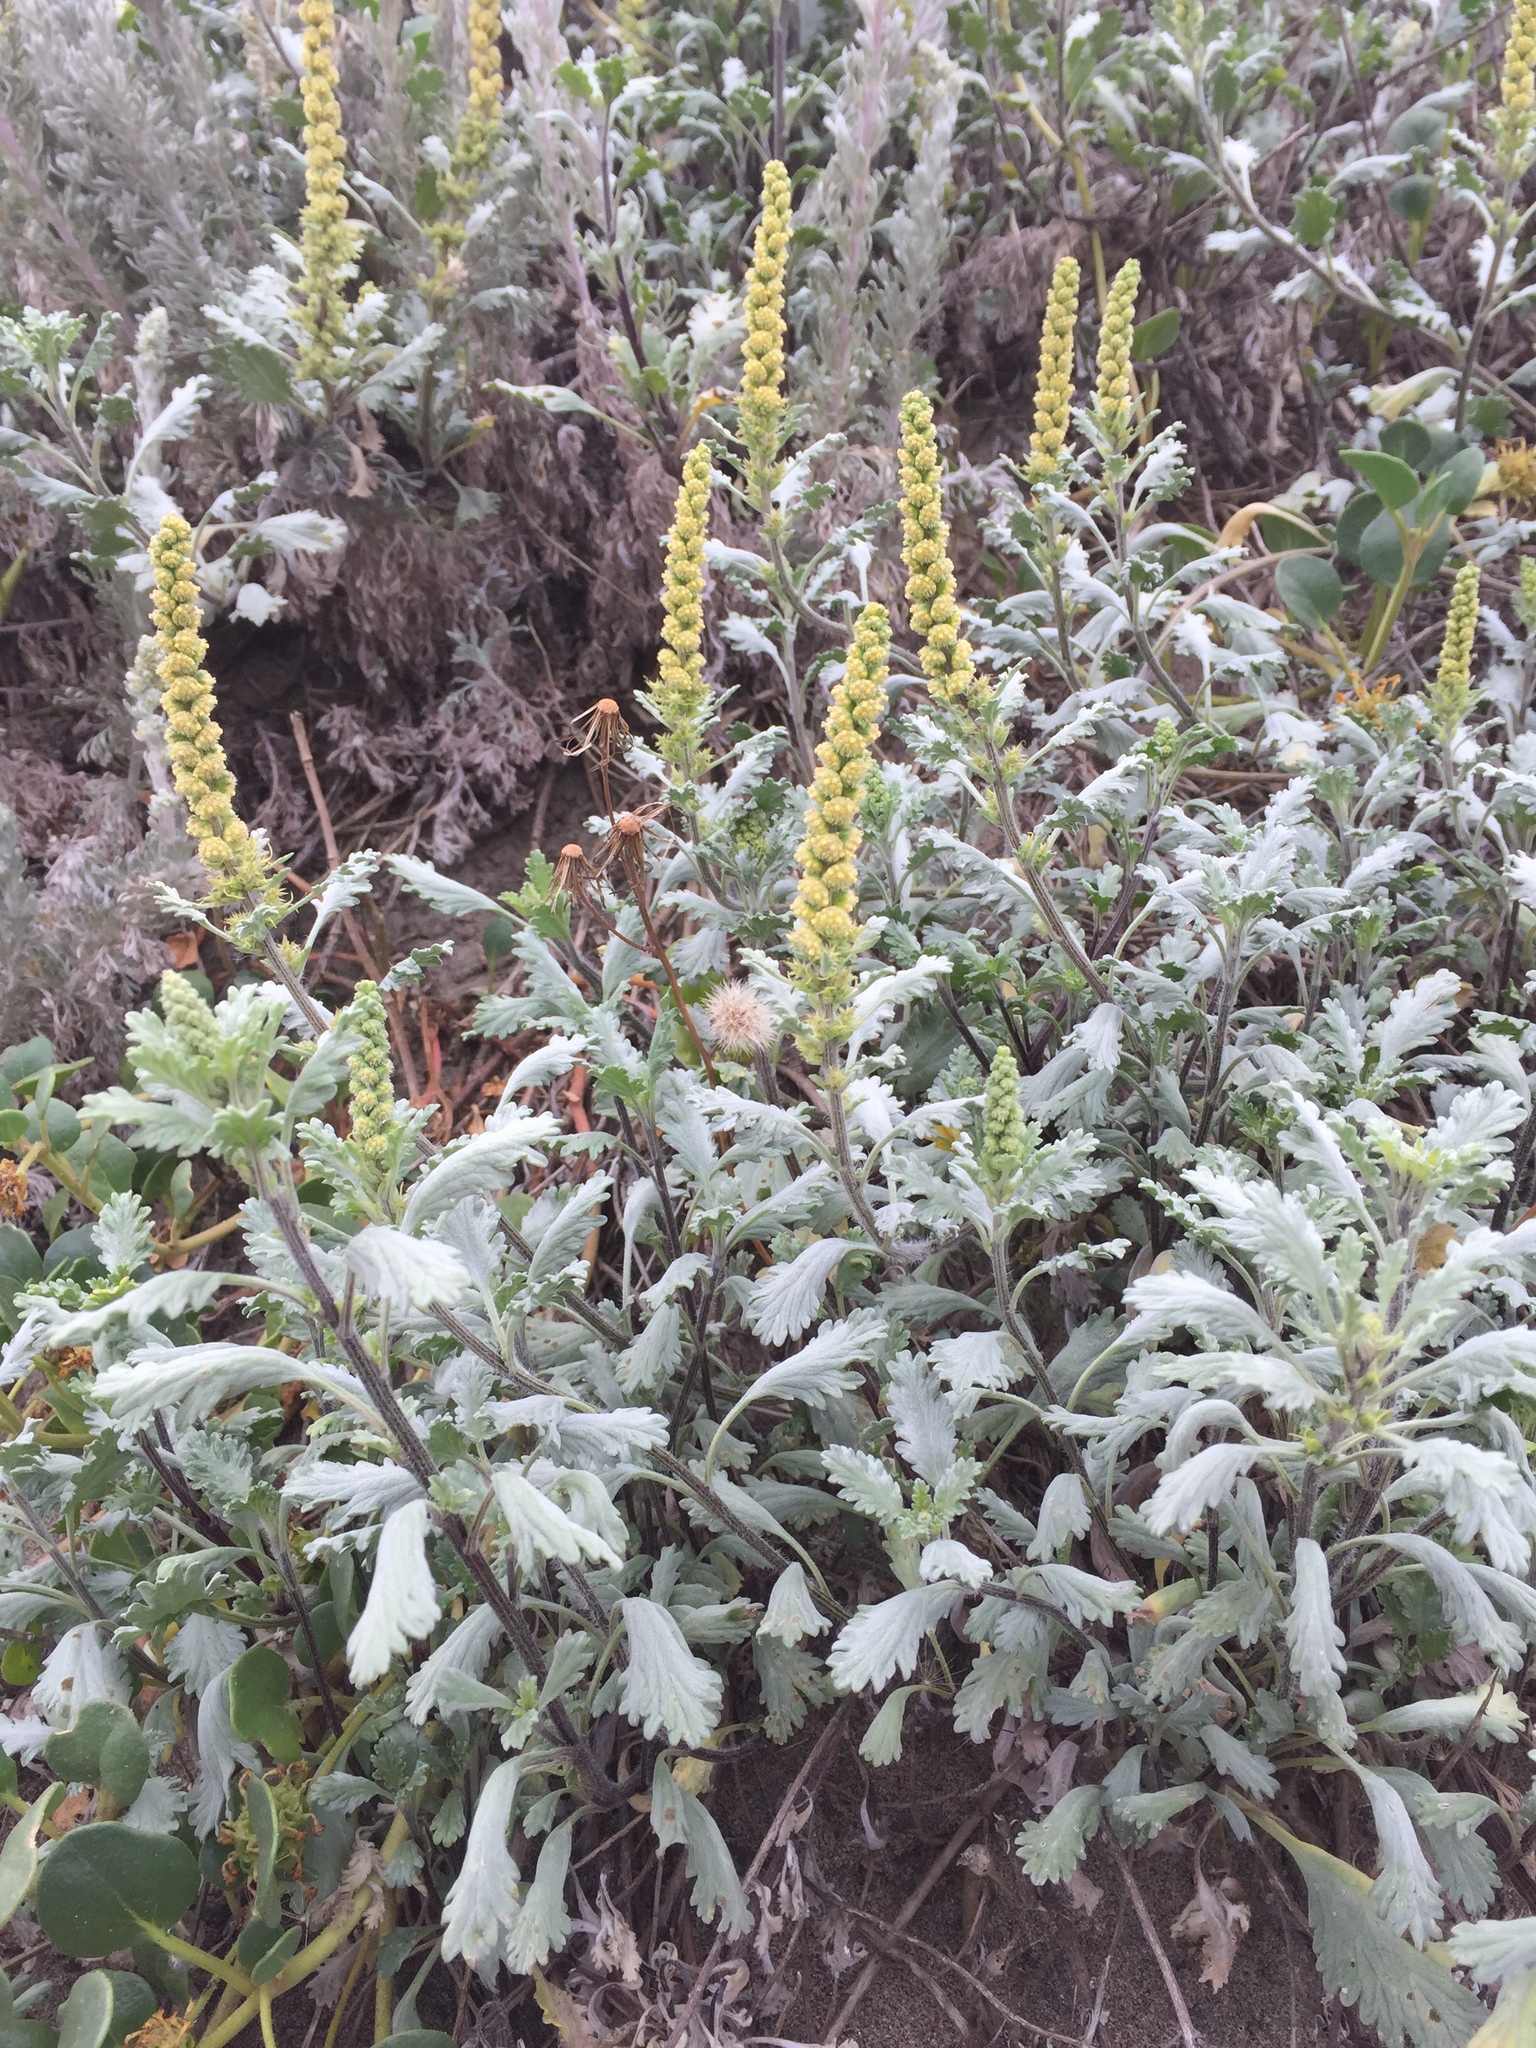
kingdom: Plantae
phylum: Tracheophyta
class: Magnoliopsida
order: Asterales
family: Asteraceae
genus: Artemisia
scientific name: Artemisia pycnocephala
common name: Coastal sagewort
